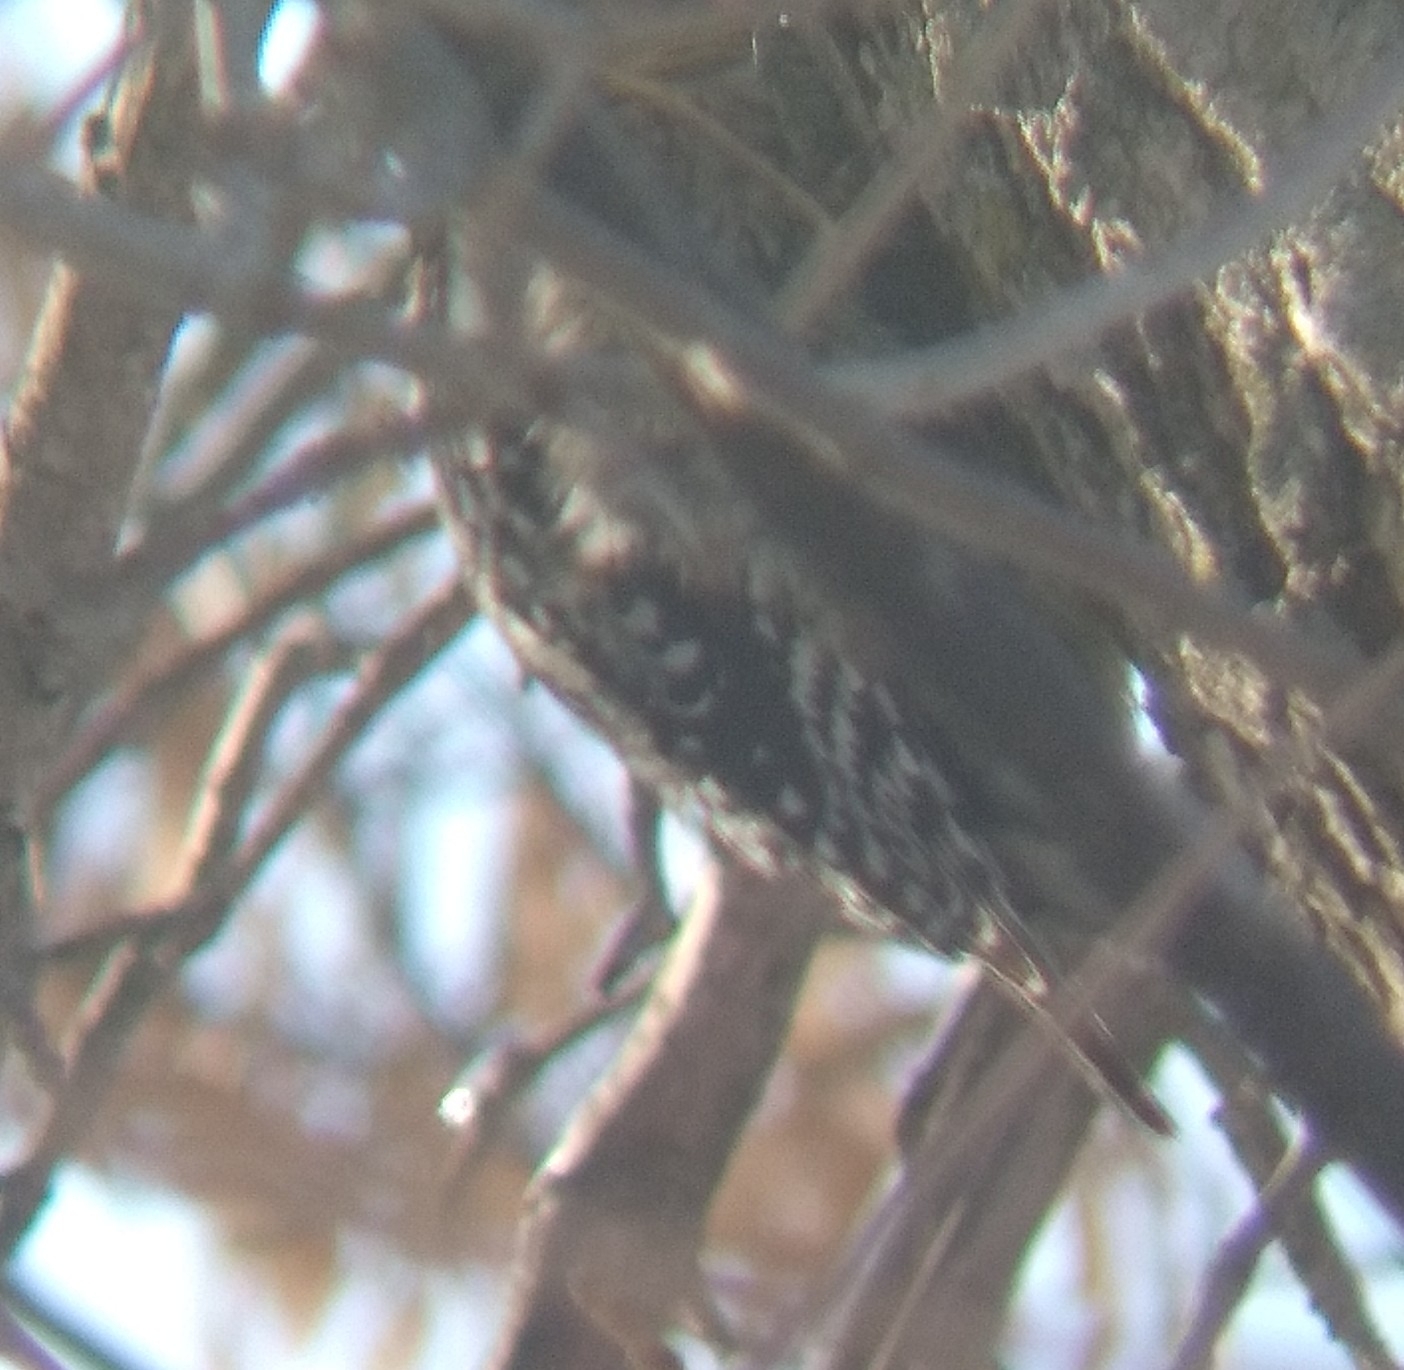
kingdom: Animalia
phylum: Chordata
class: Aves
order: Piciformes
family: Picidae
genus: Sphyrapicus
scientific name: Sphyrapicus varius
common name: Yellow-bellied sapsucker
